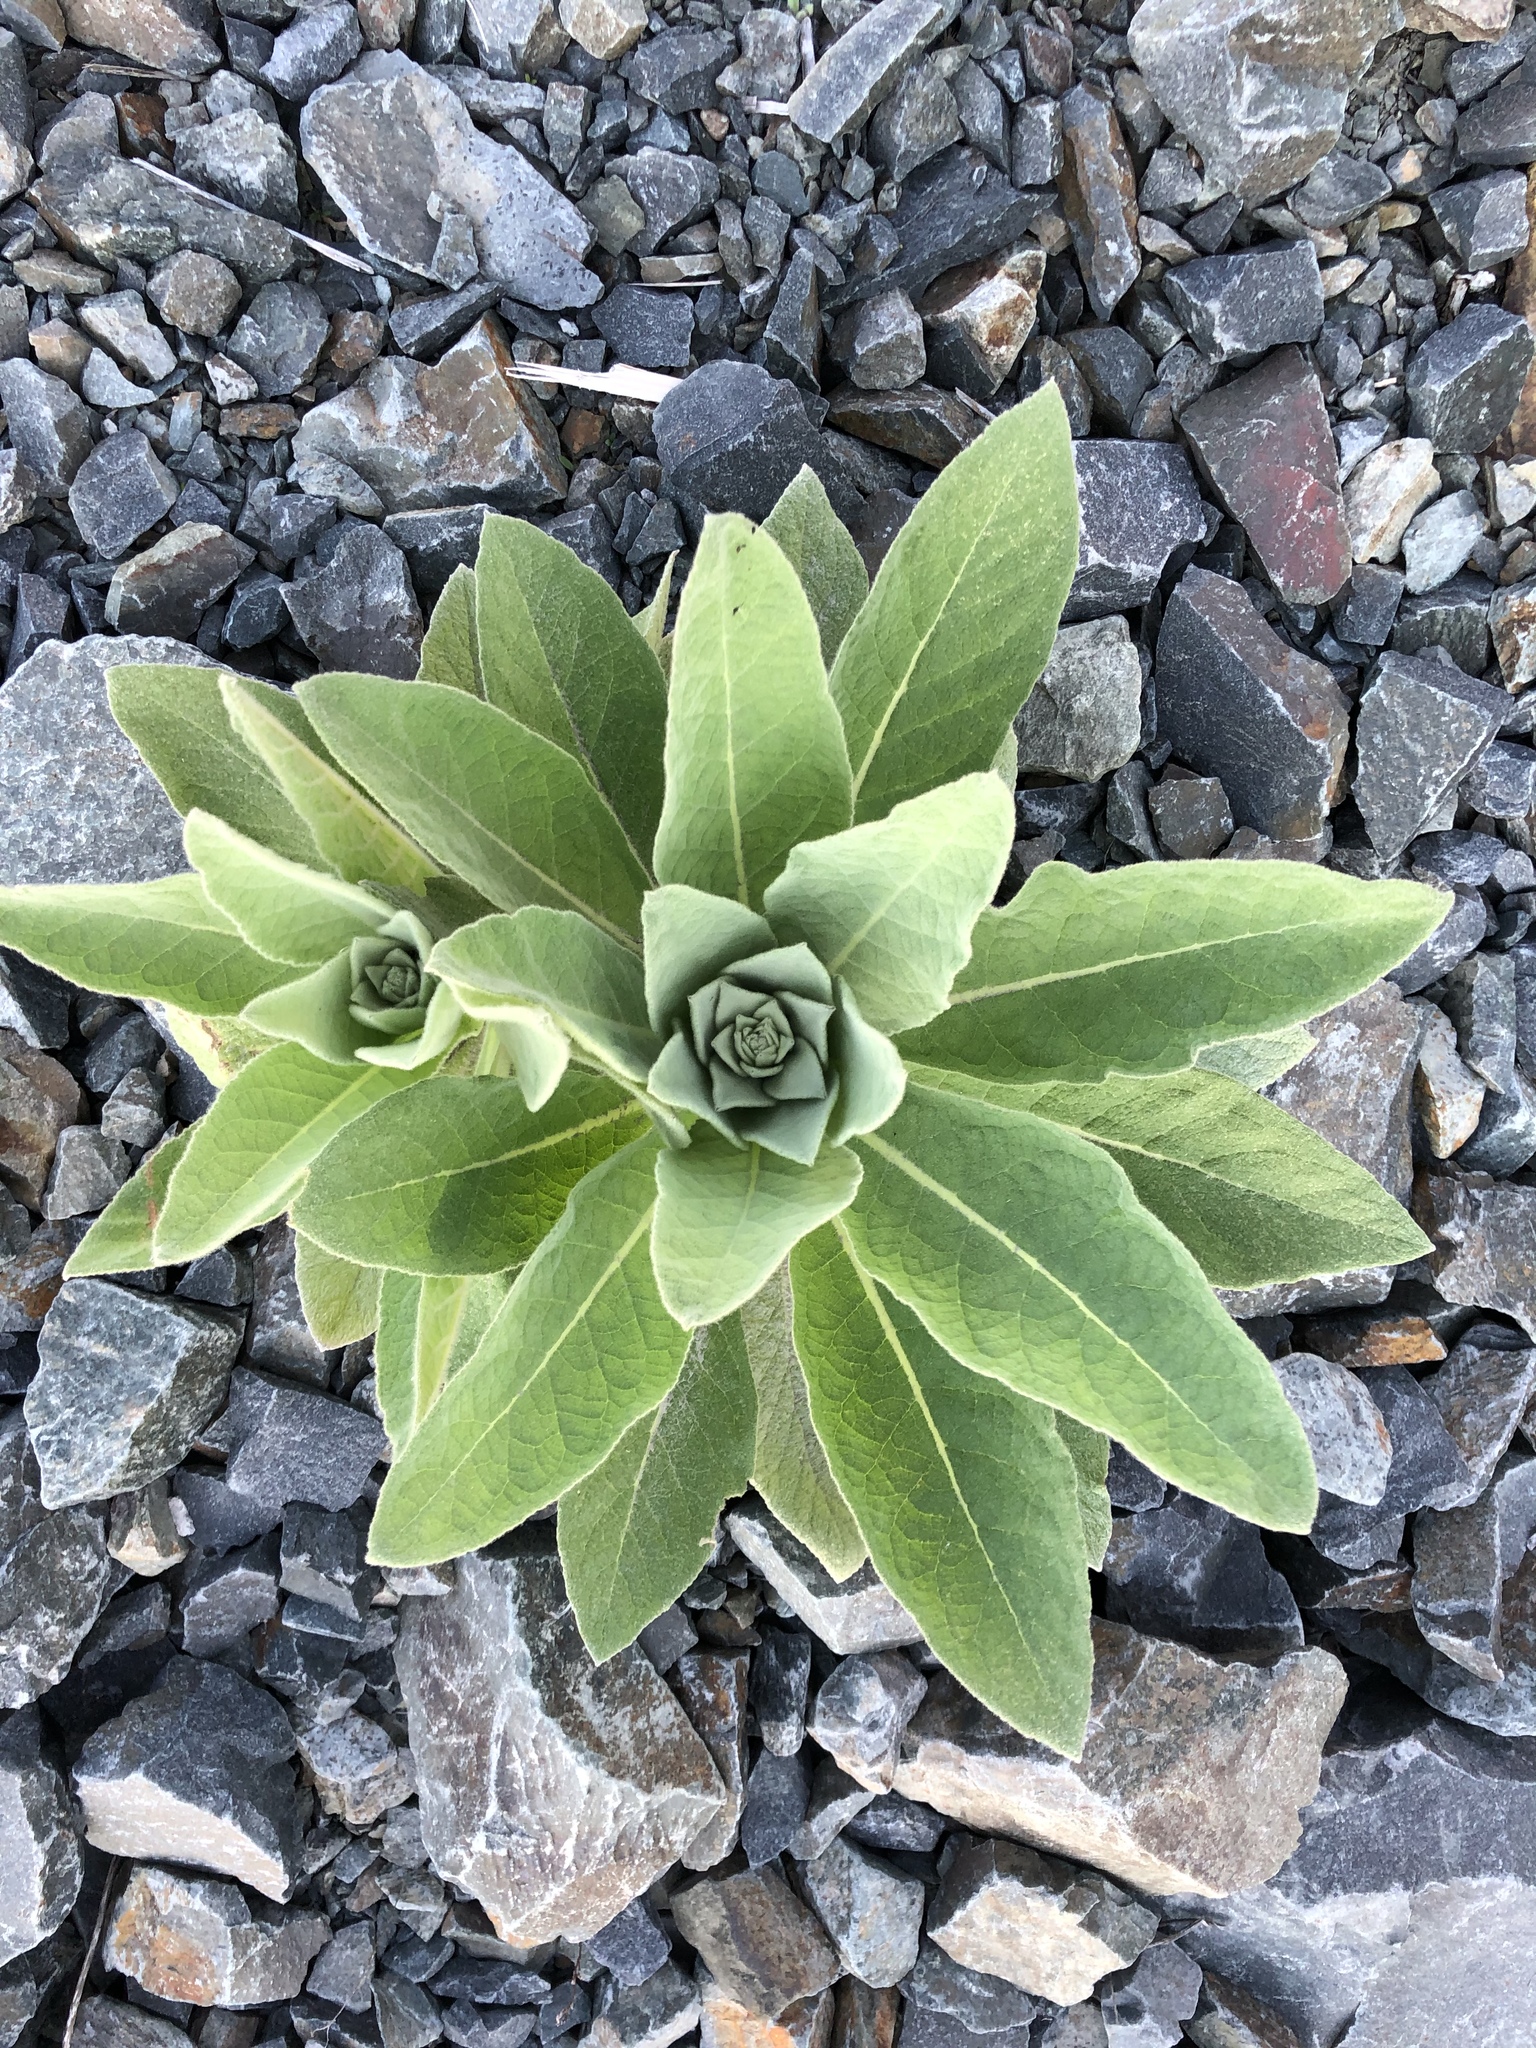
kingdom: Plantae
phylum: Tracheophyta
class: Magnoliopsida
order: Lamiales
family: Scrophulariaceae
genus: Verbascum
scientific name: Verbascum thapsus
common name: Common mullein
